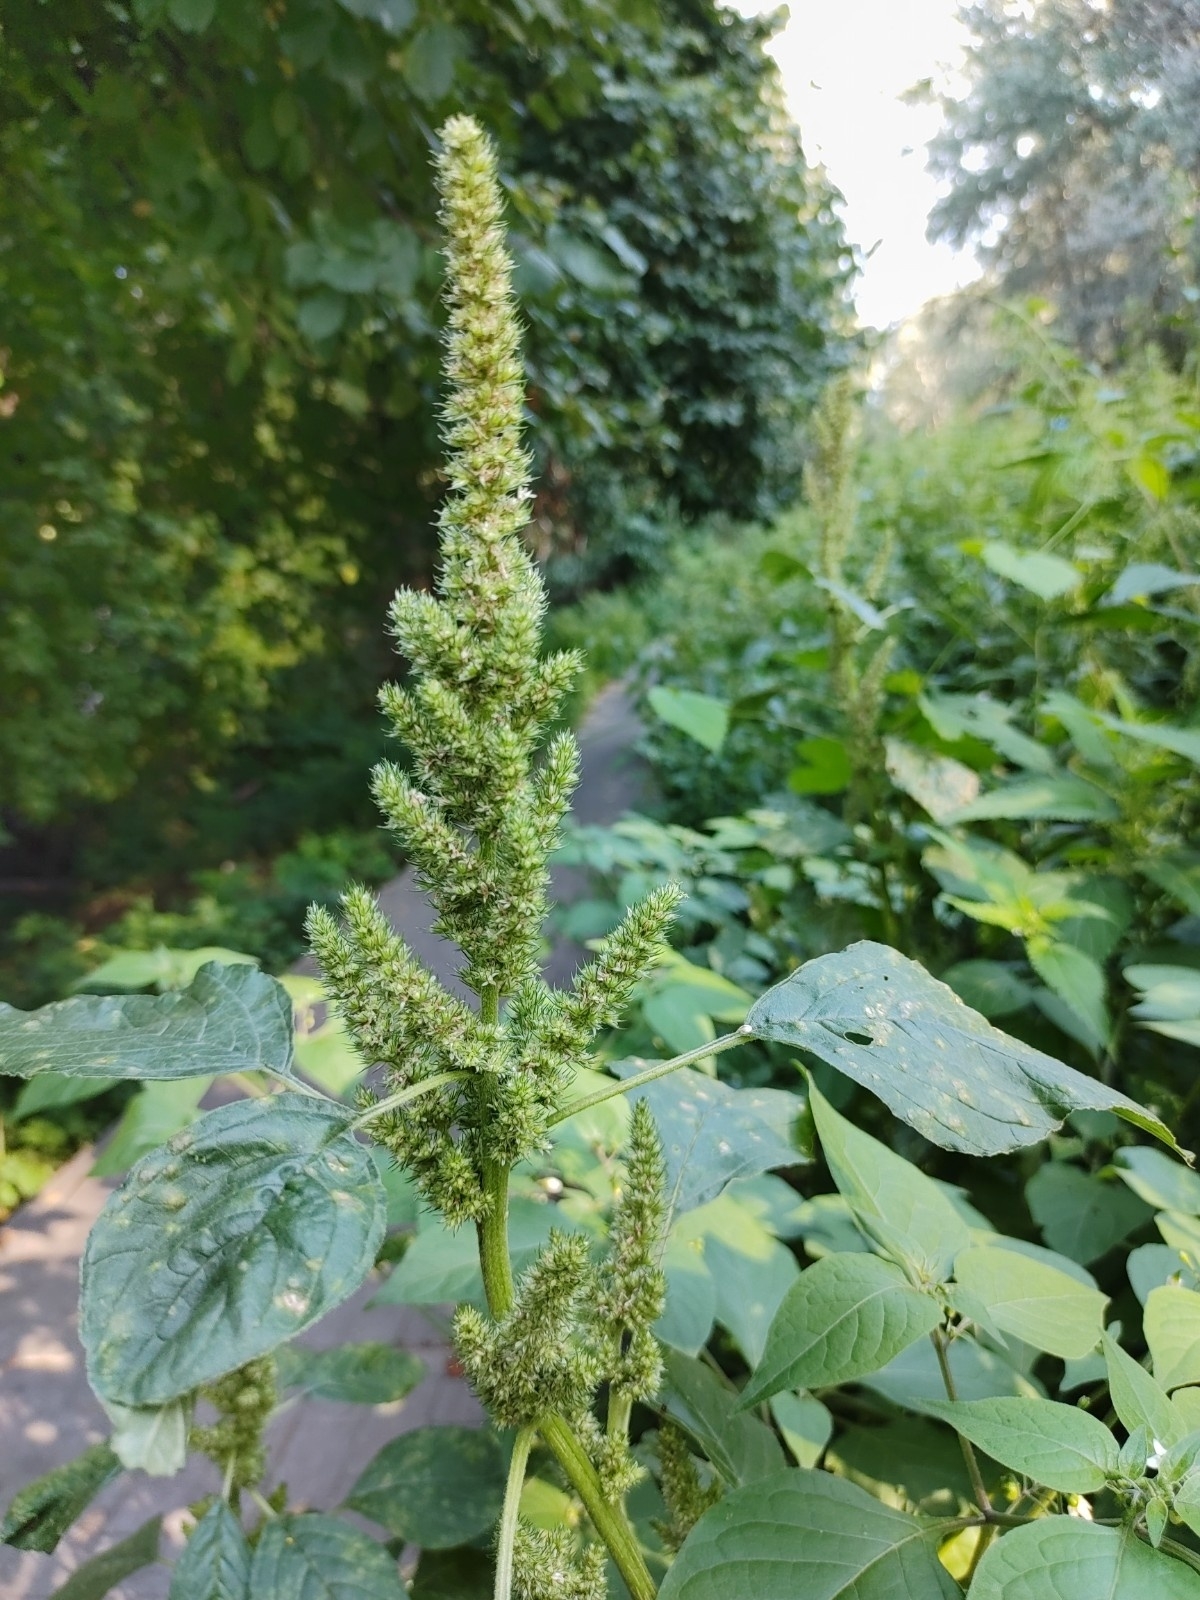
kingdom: Plantae
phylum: Tracheophyta
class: Magnoliopsida
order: Caryophyllales
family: Amaranthaceae
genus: Amaranthus
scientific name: Amaranthus retroflexus
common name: Redroot amaranth
